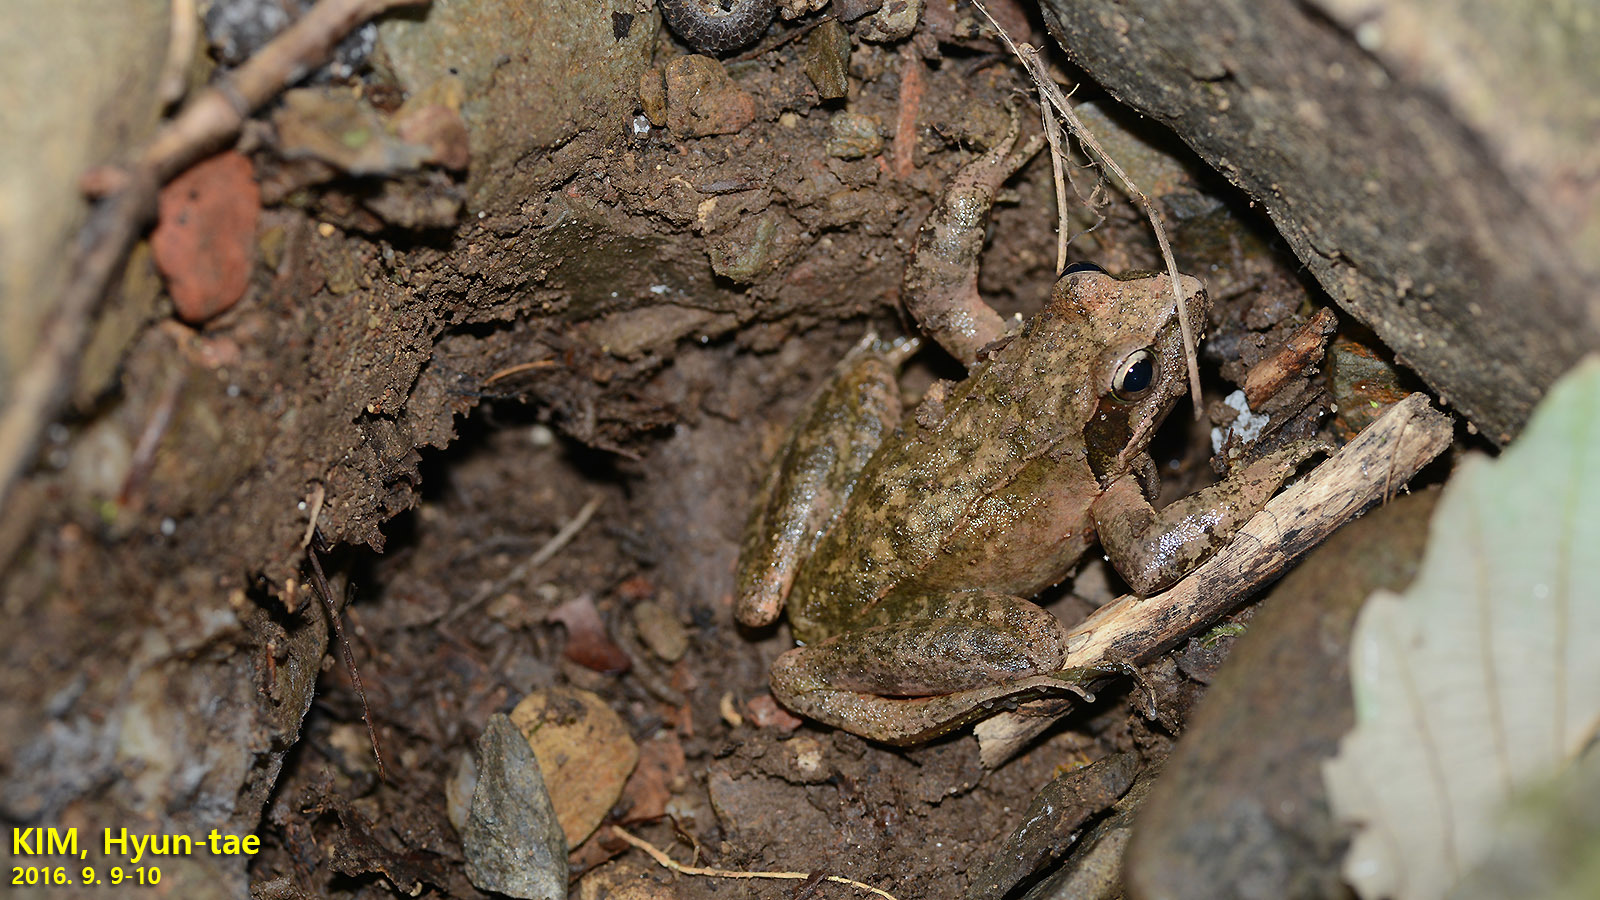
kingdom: Animalia
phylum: Chordata
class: Amphibia
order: Anura
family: Ranidae
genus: Rana
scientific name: Rana huanrenensis
